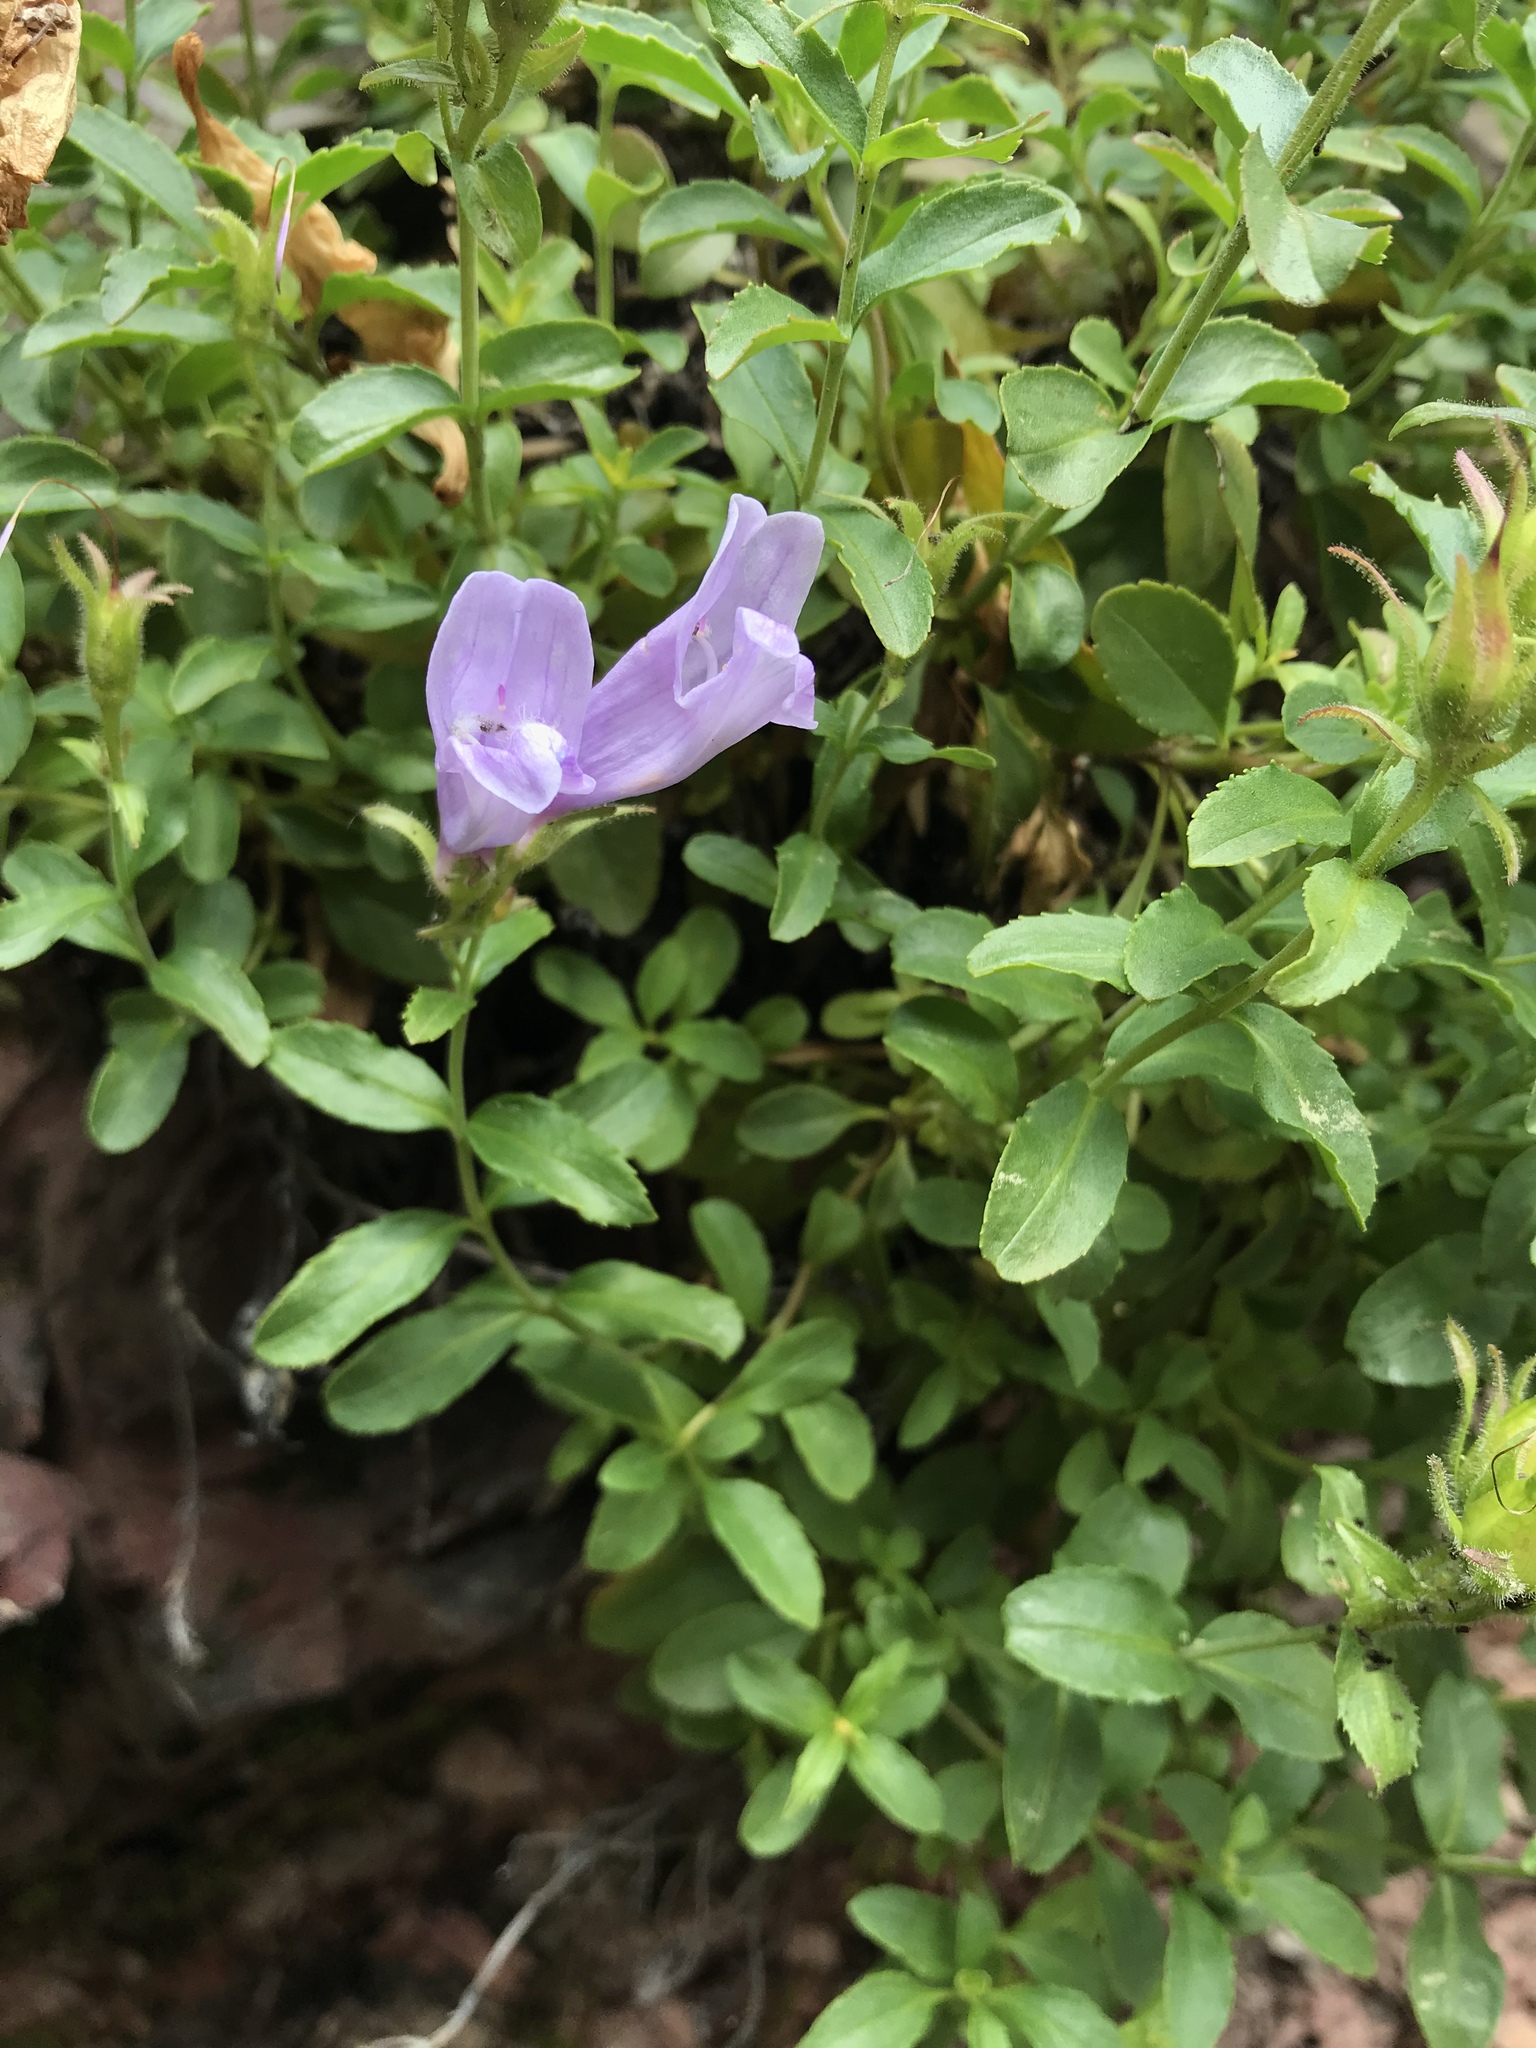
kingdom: Plantae
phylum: Tracheophyta
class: Magnoliopsida
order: Lamiales
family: Plantaginaceae
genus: Penstemon
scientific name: Penstemon ellipticus
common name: Alpine beardtongue
